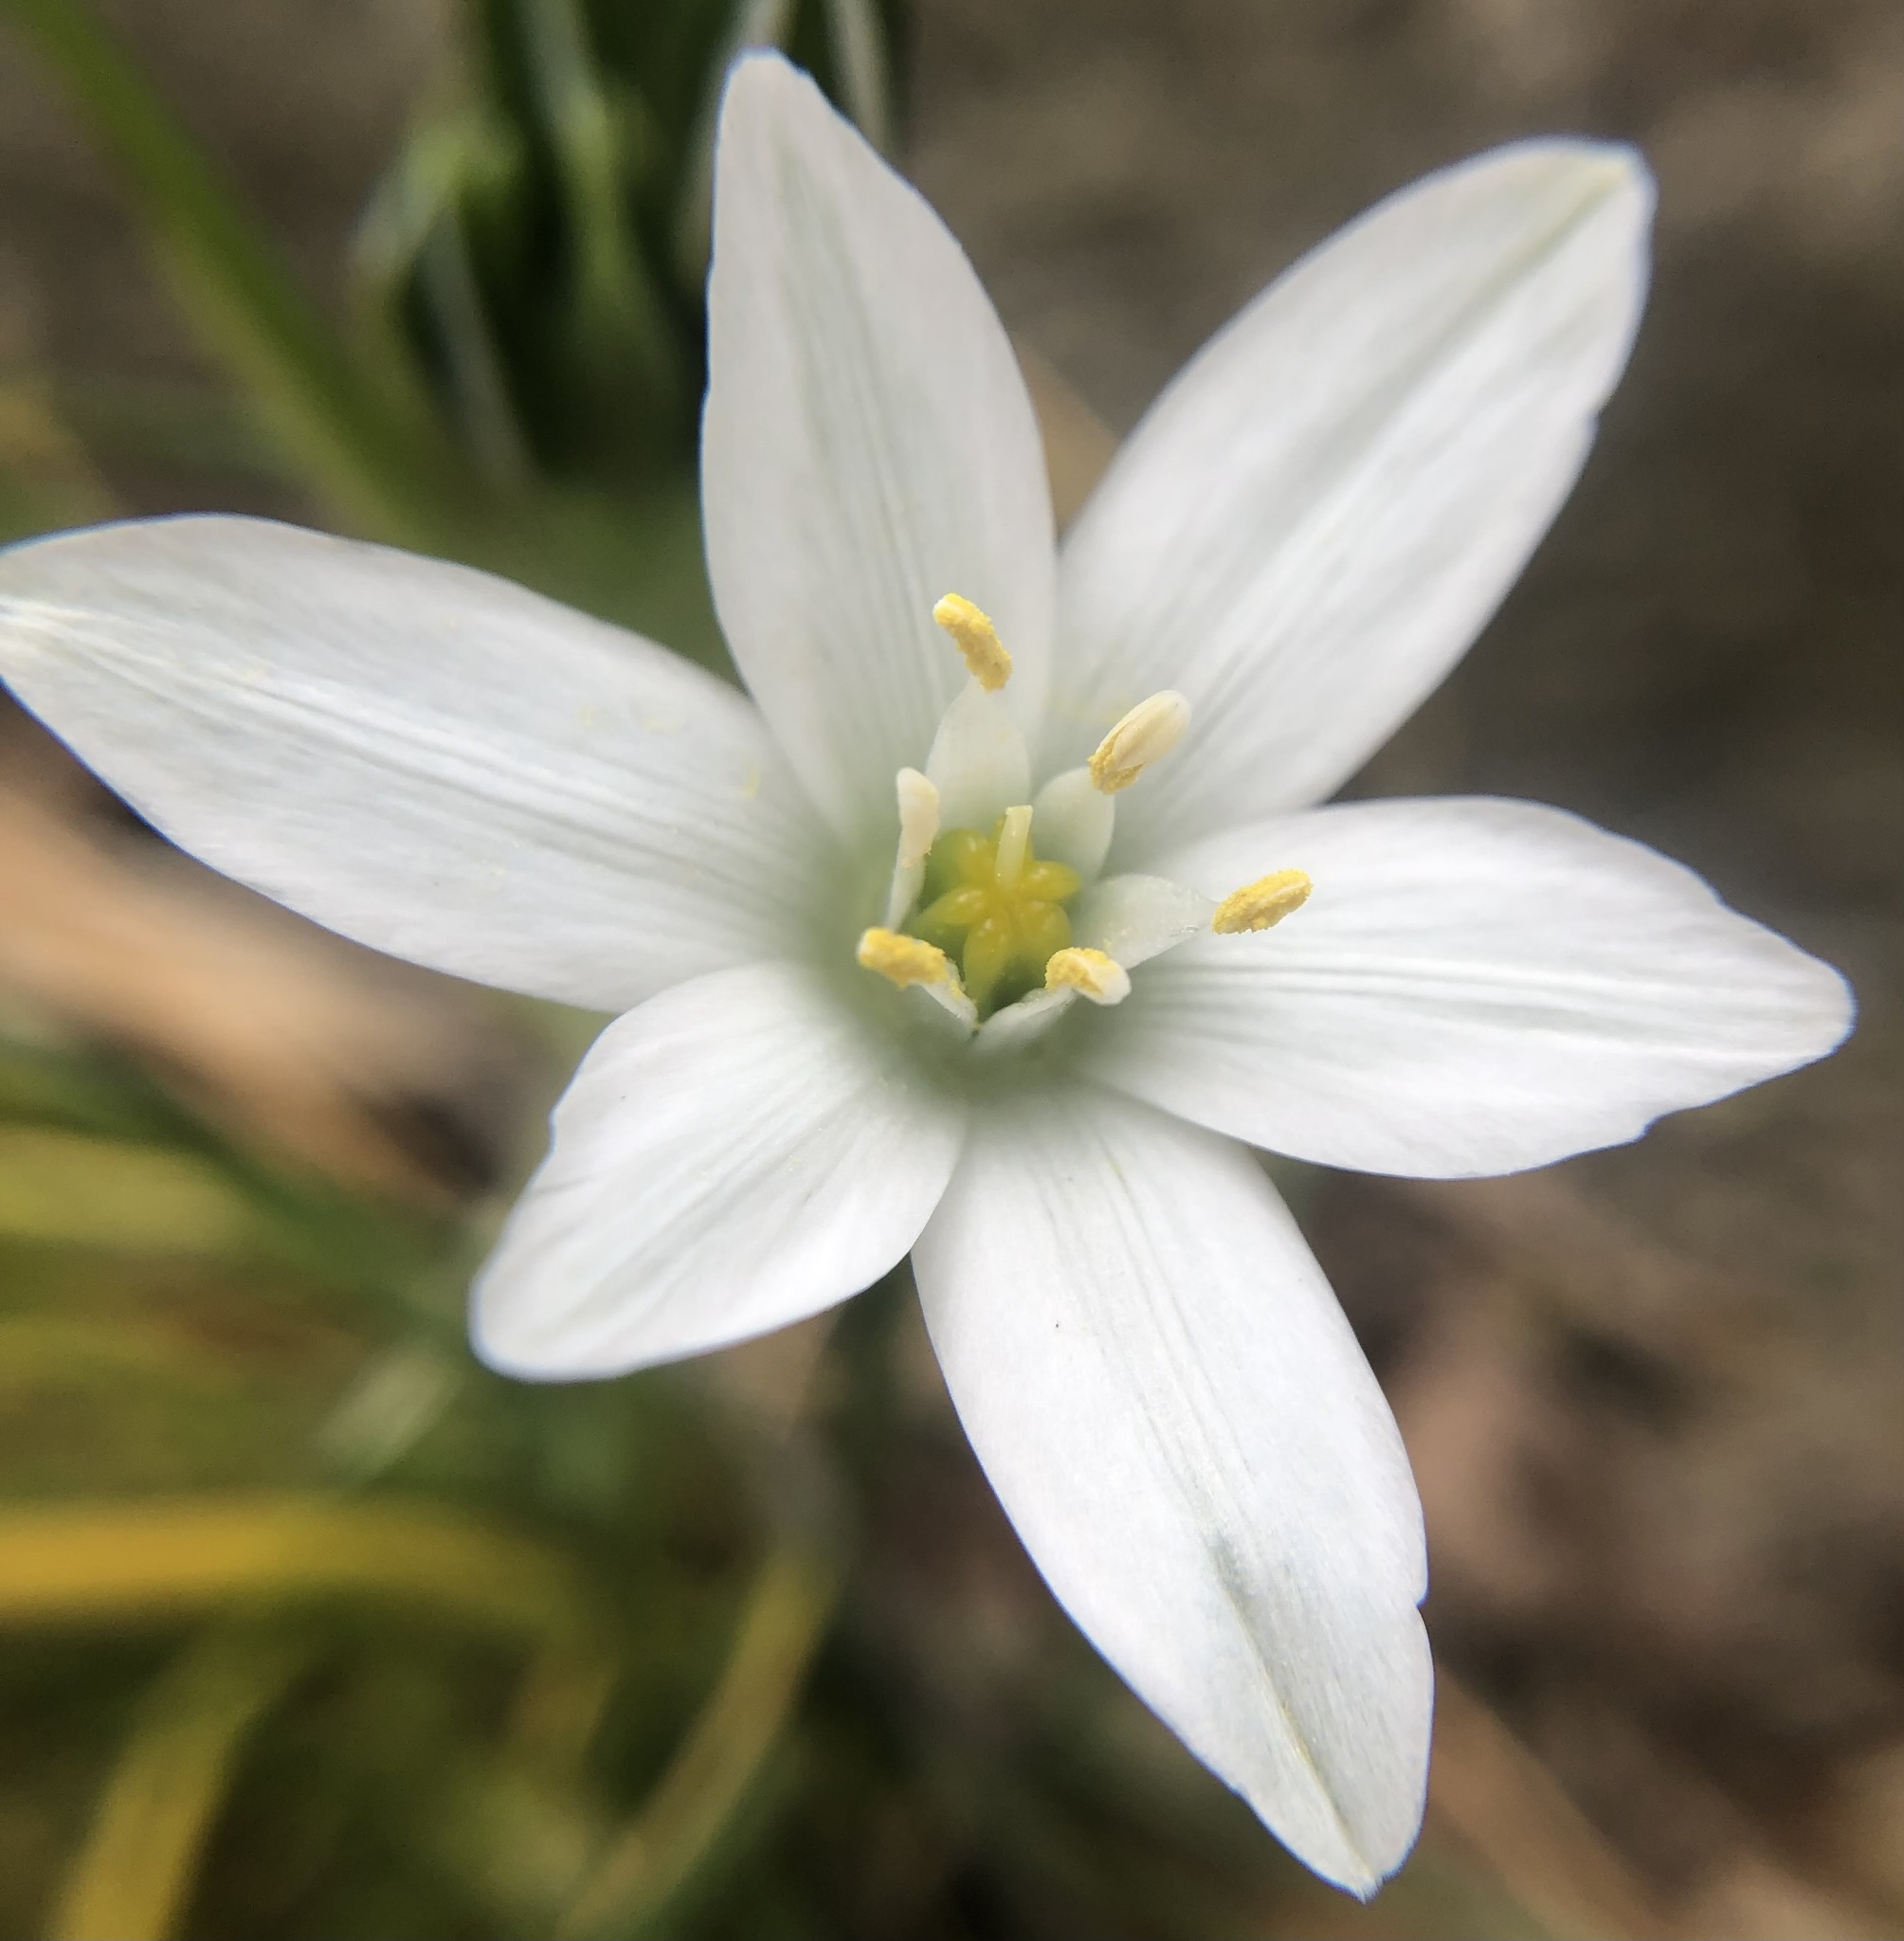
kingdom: Plantae
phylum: Tracheophyta
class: Liliopsida
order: Asparagales
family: Asparagaceae
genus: Ornithogalum
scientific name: Ornithogalum umbellatum
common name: Garden star-of-bethlehem
